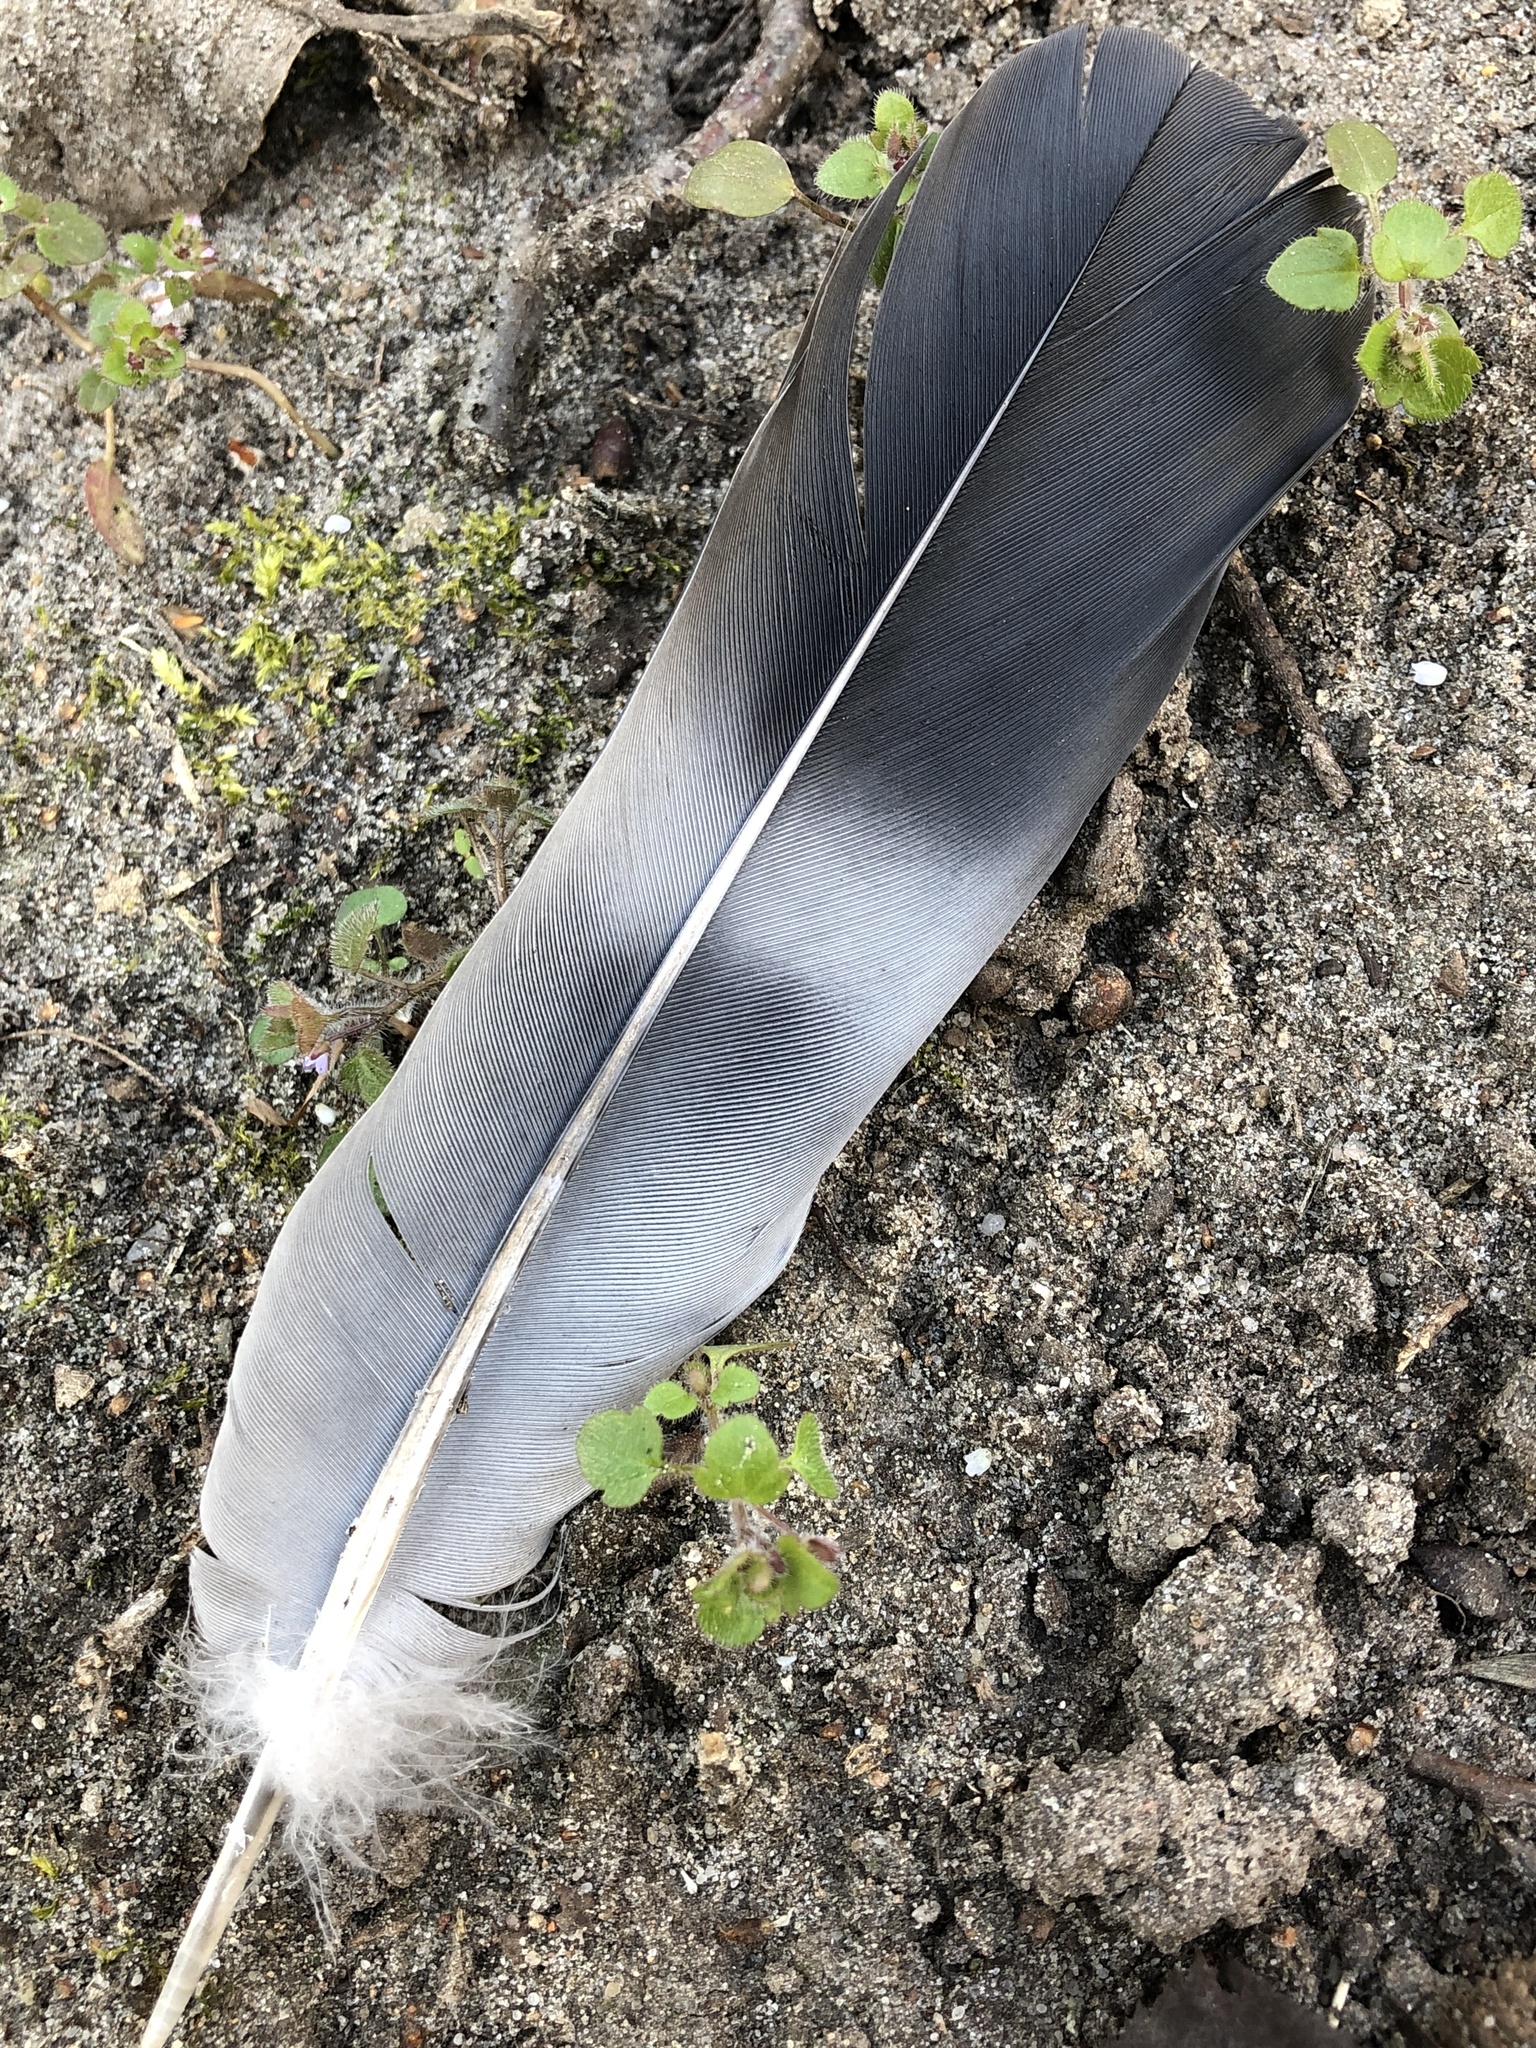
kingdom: Animalia
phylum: Chordata
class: Aves
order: Columbiformes
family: Columbidae
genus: Columba
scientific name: Columba palumbus
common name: Common wood pigeon
